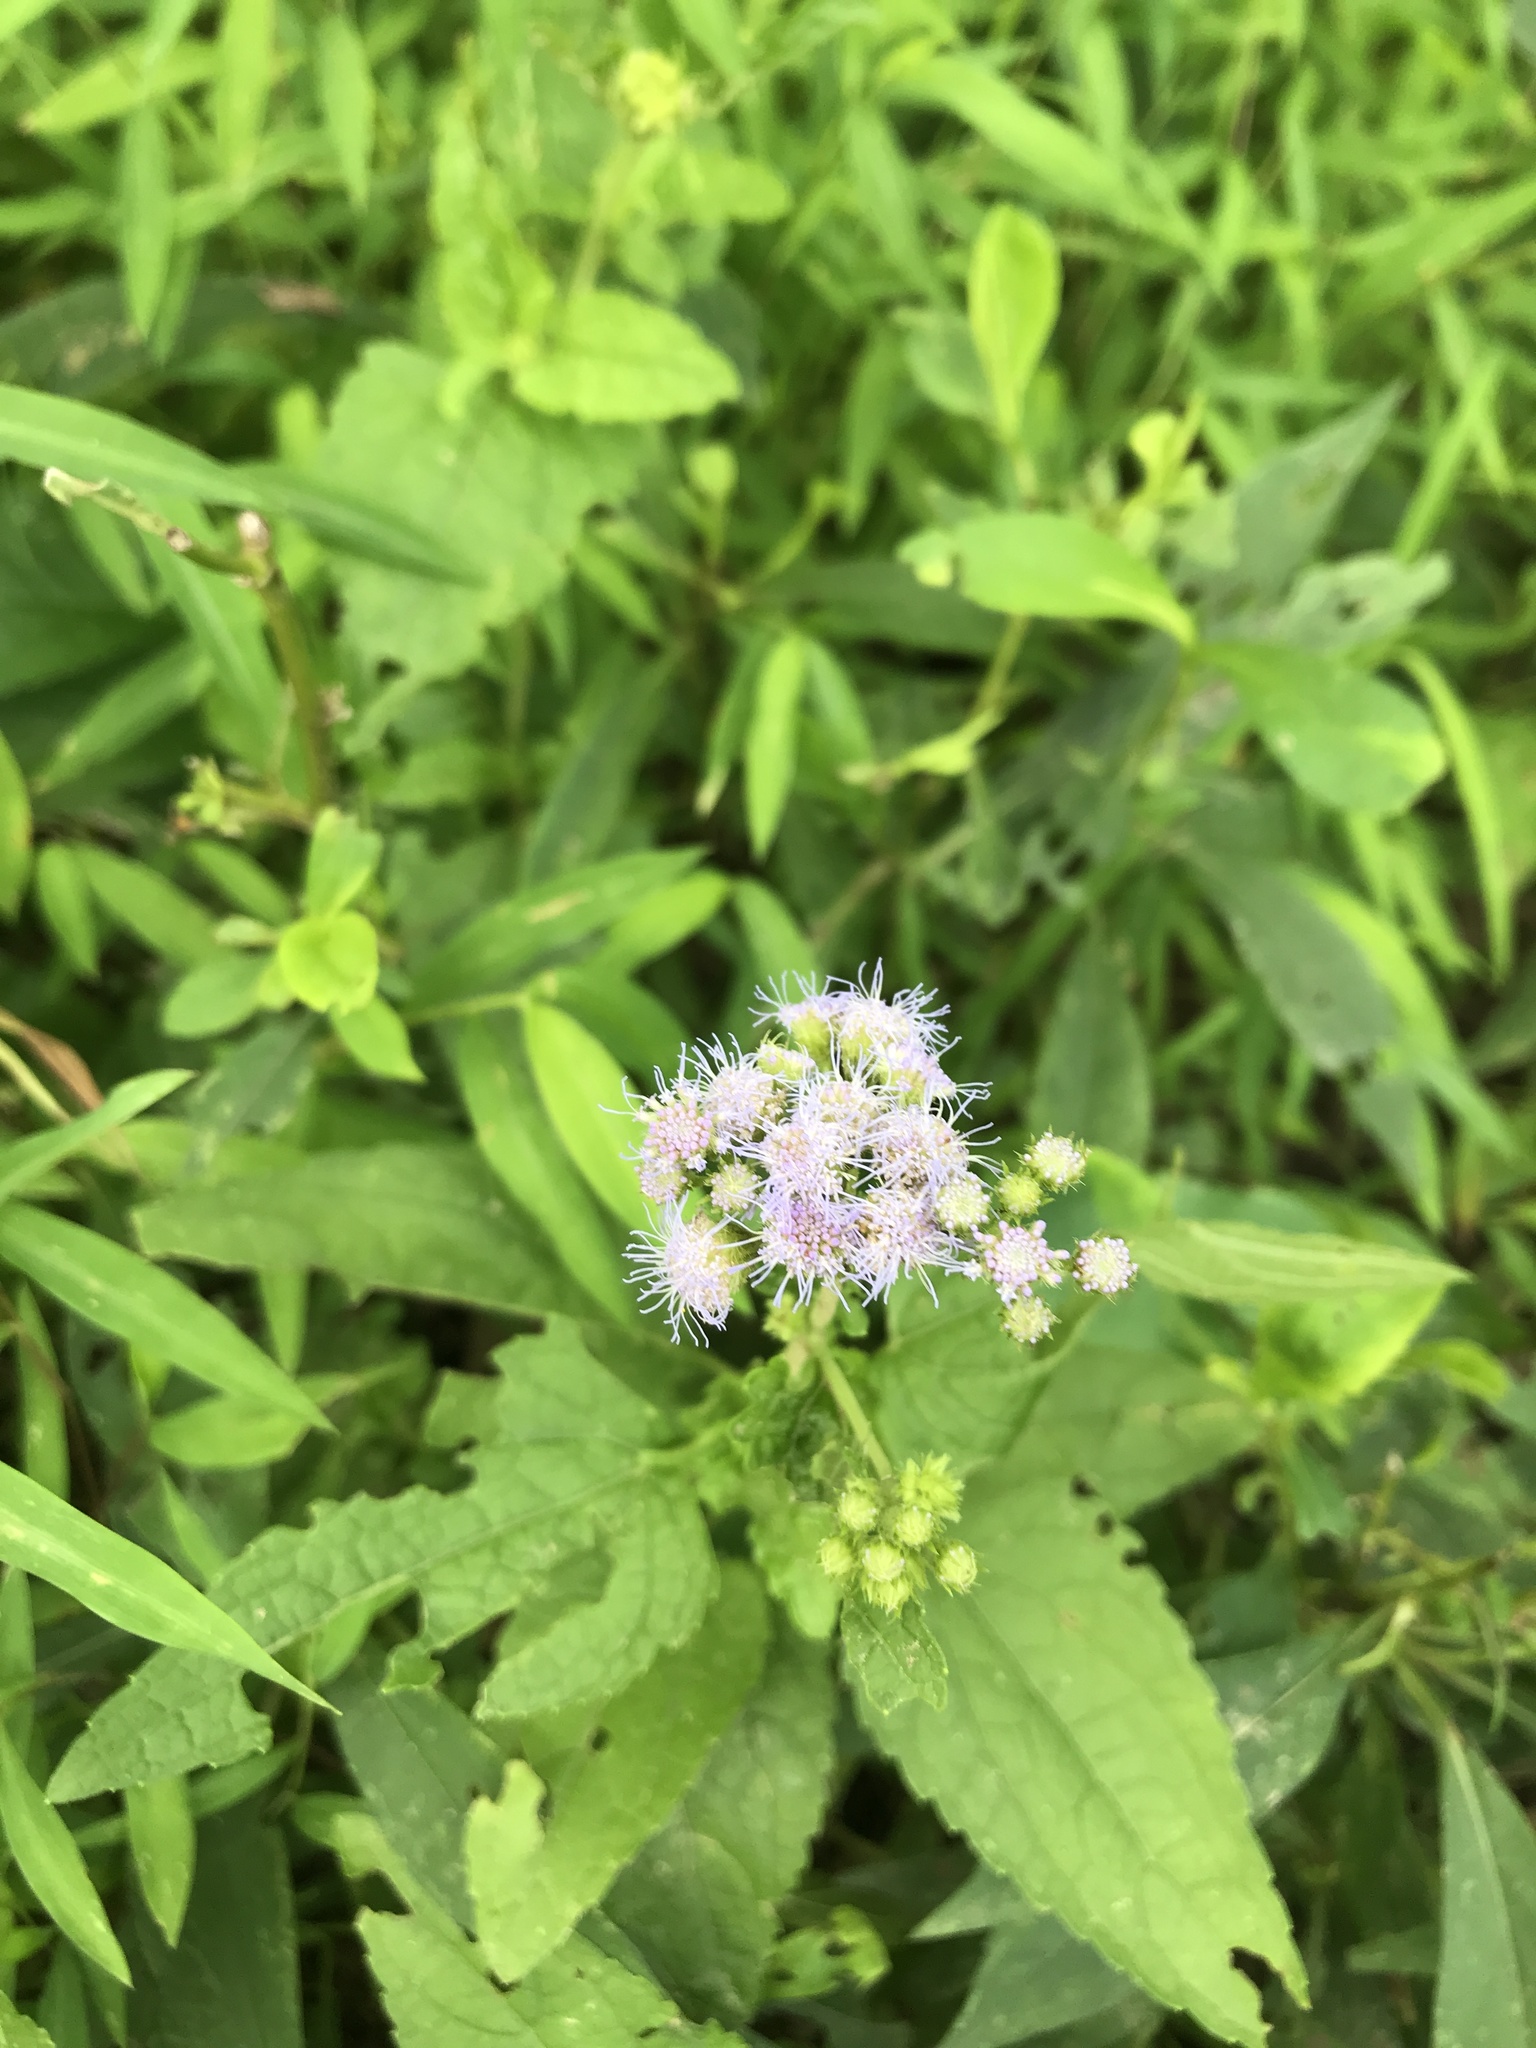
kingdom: Plantae
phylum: Tracheophyta
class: Magnoliopsida
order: Asterales
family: Asteraceae
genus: Conoclinium
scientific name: Conoclinium coelestinum
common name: Blue mistflower
